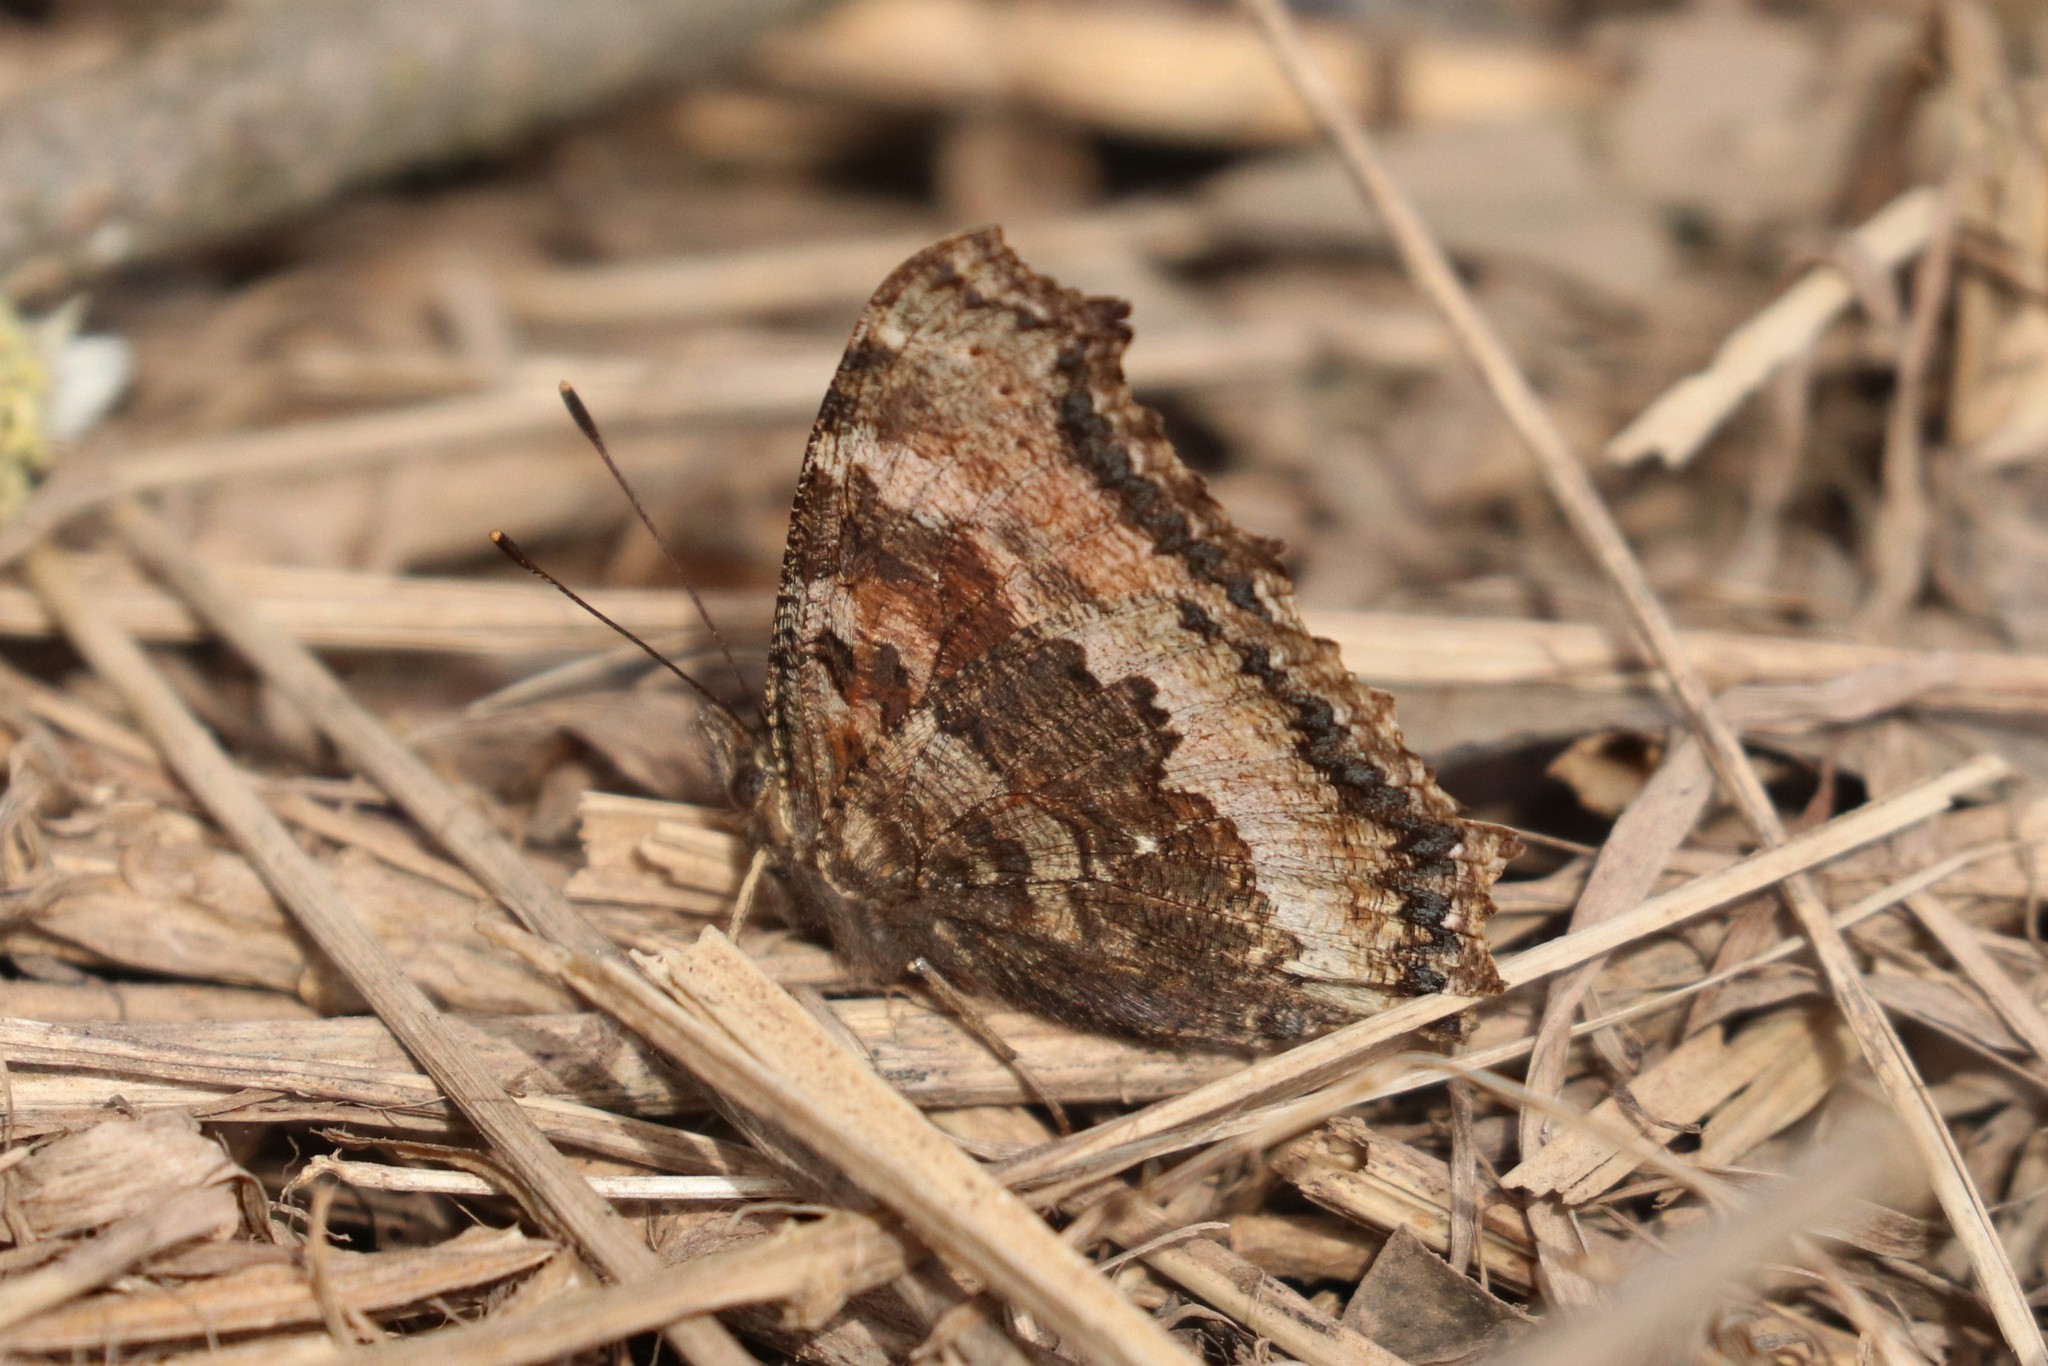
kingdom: Animalia
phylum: Arthropoda
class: Insecta
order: Lepidoptera
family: Nymphalidae
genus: Nymphalis
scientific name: Nymphalis xanthomelas
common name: Scarce tortoiseshell
